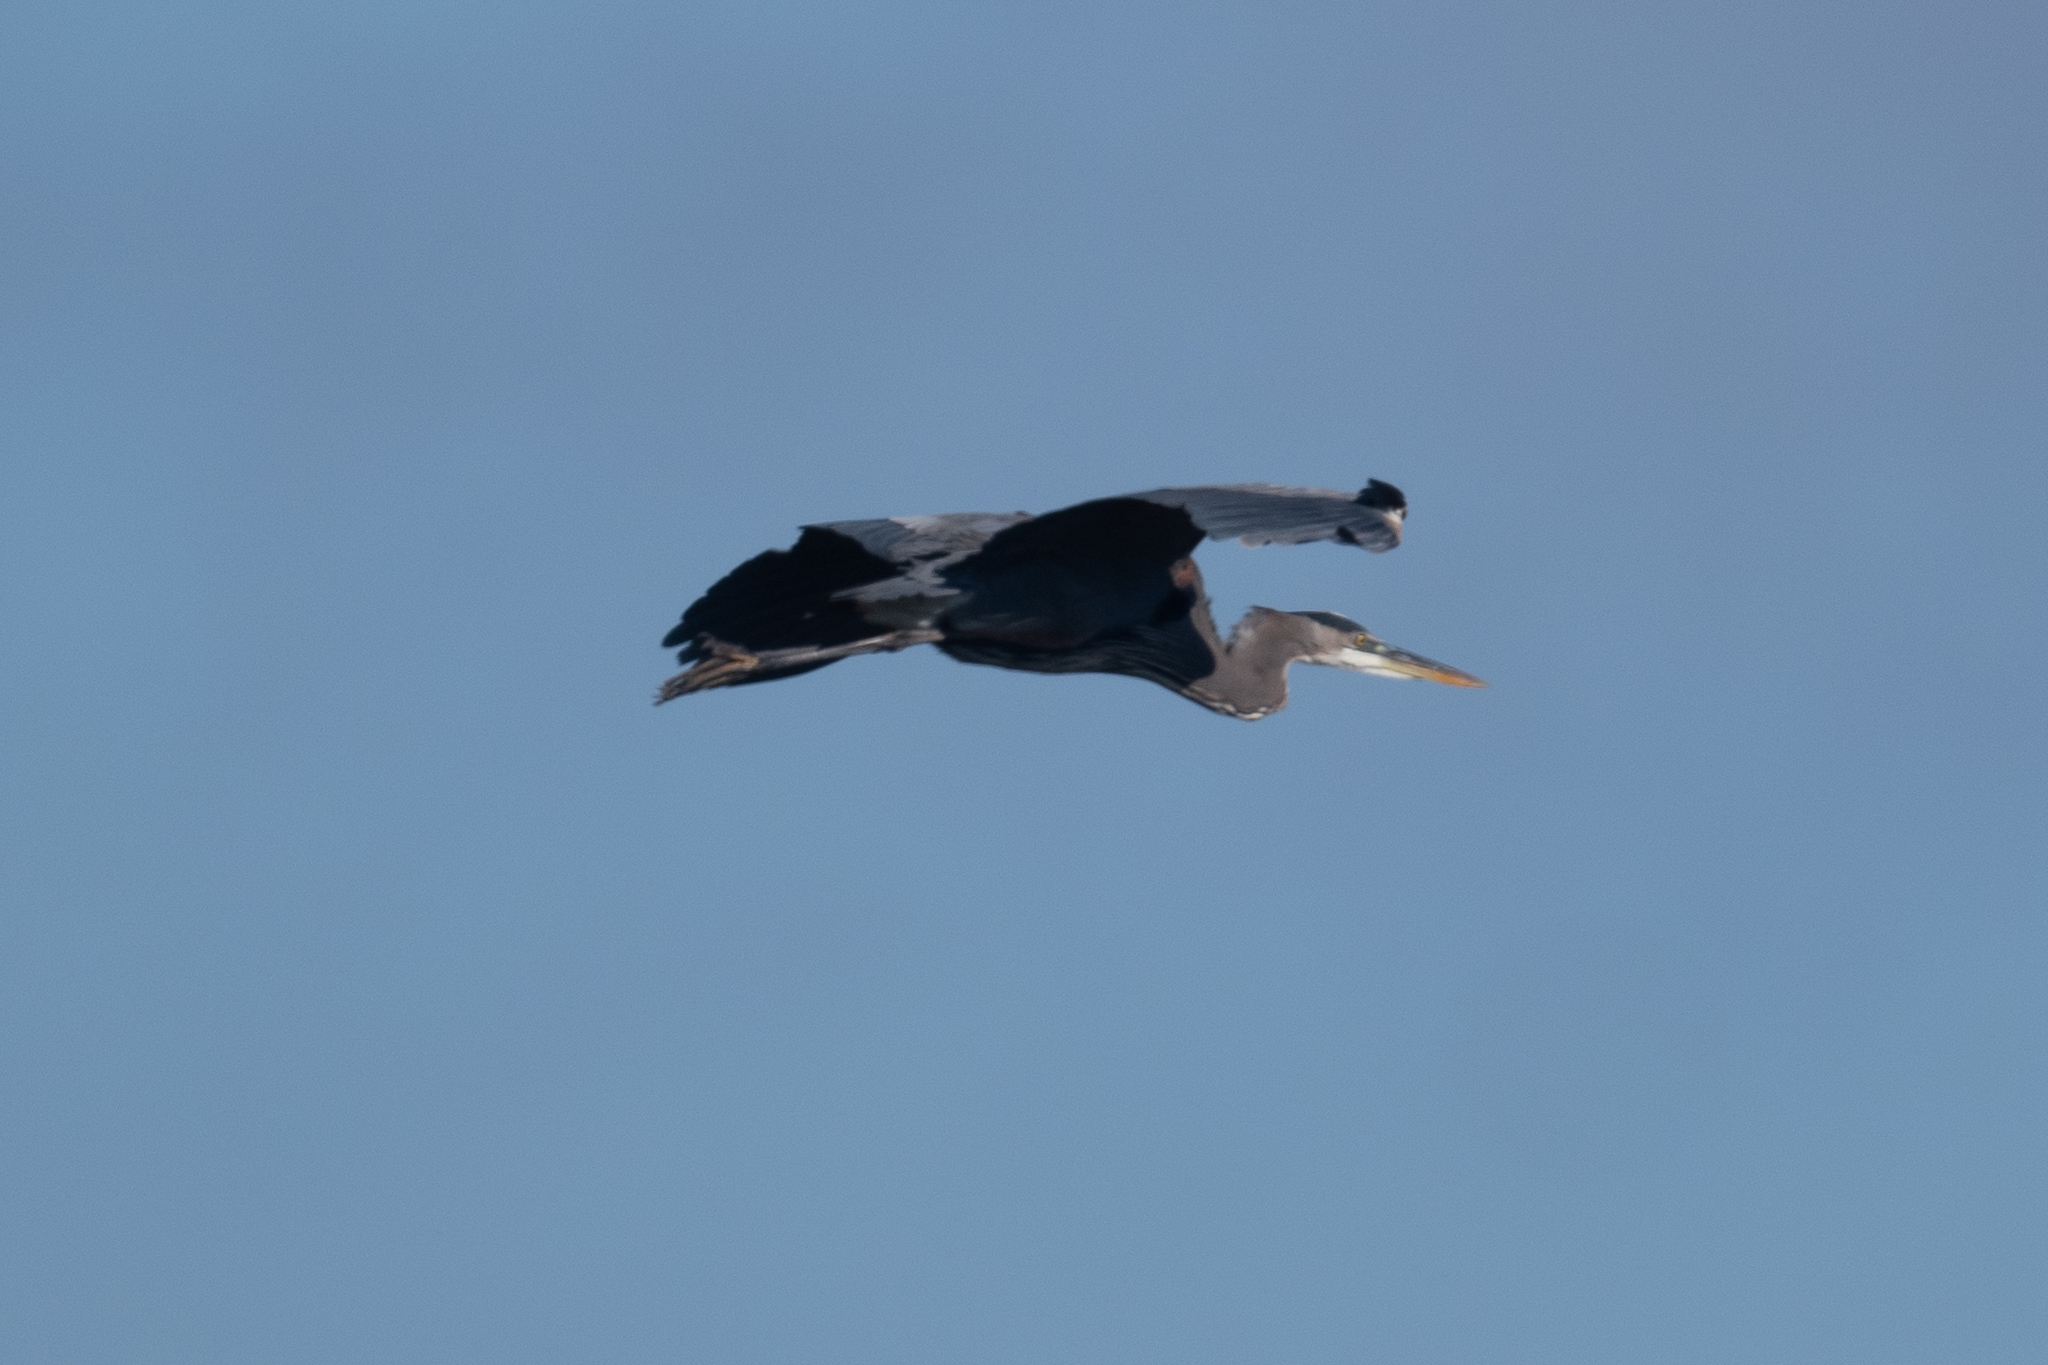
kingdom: Animalia
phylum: Chordata
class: Aves
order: Pelecaniformes
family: Ardeidae
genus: Ardea
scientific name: Ardea herodias
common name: Great blue heron
